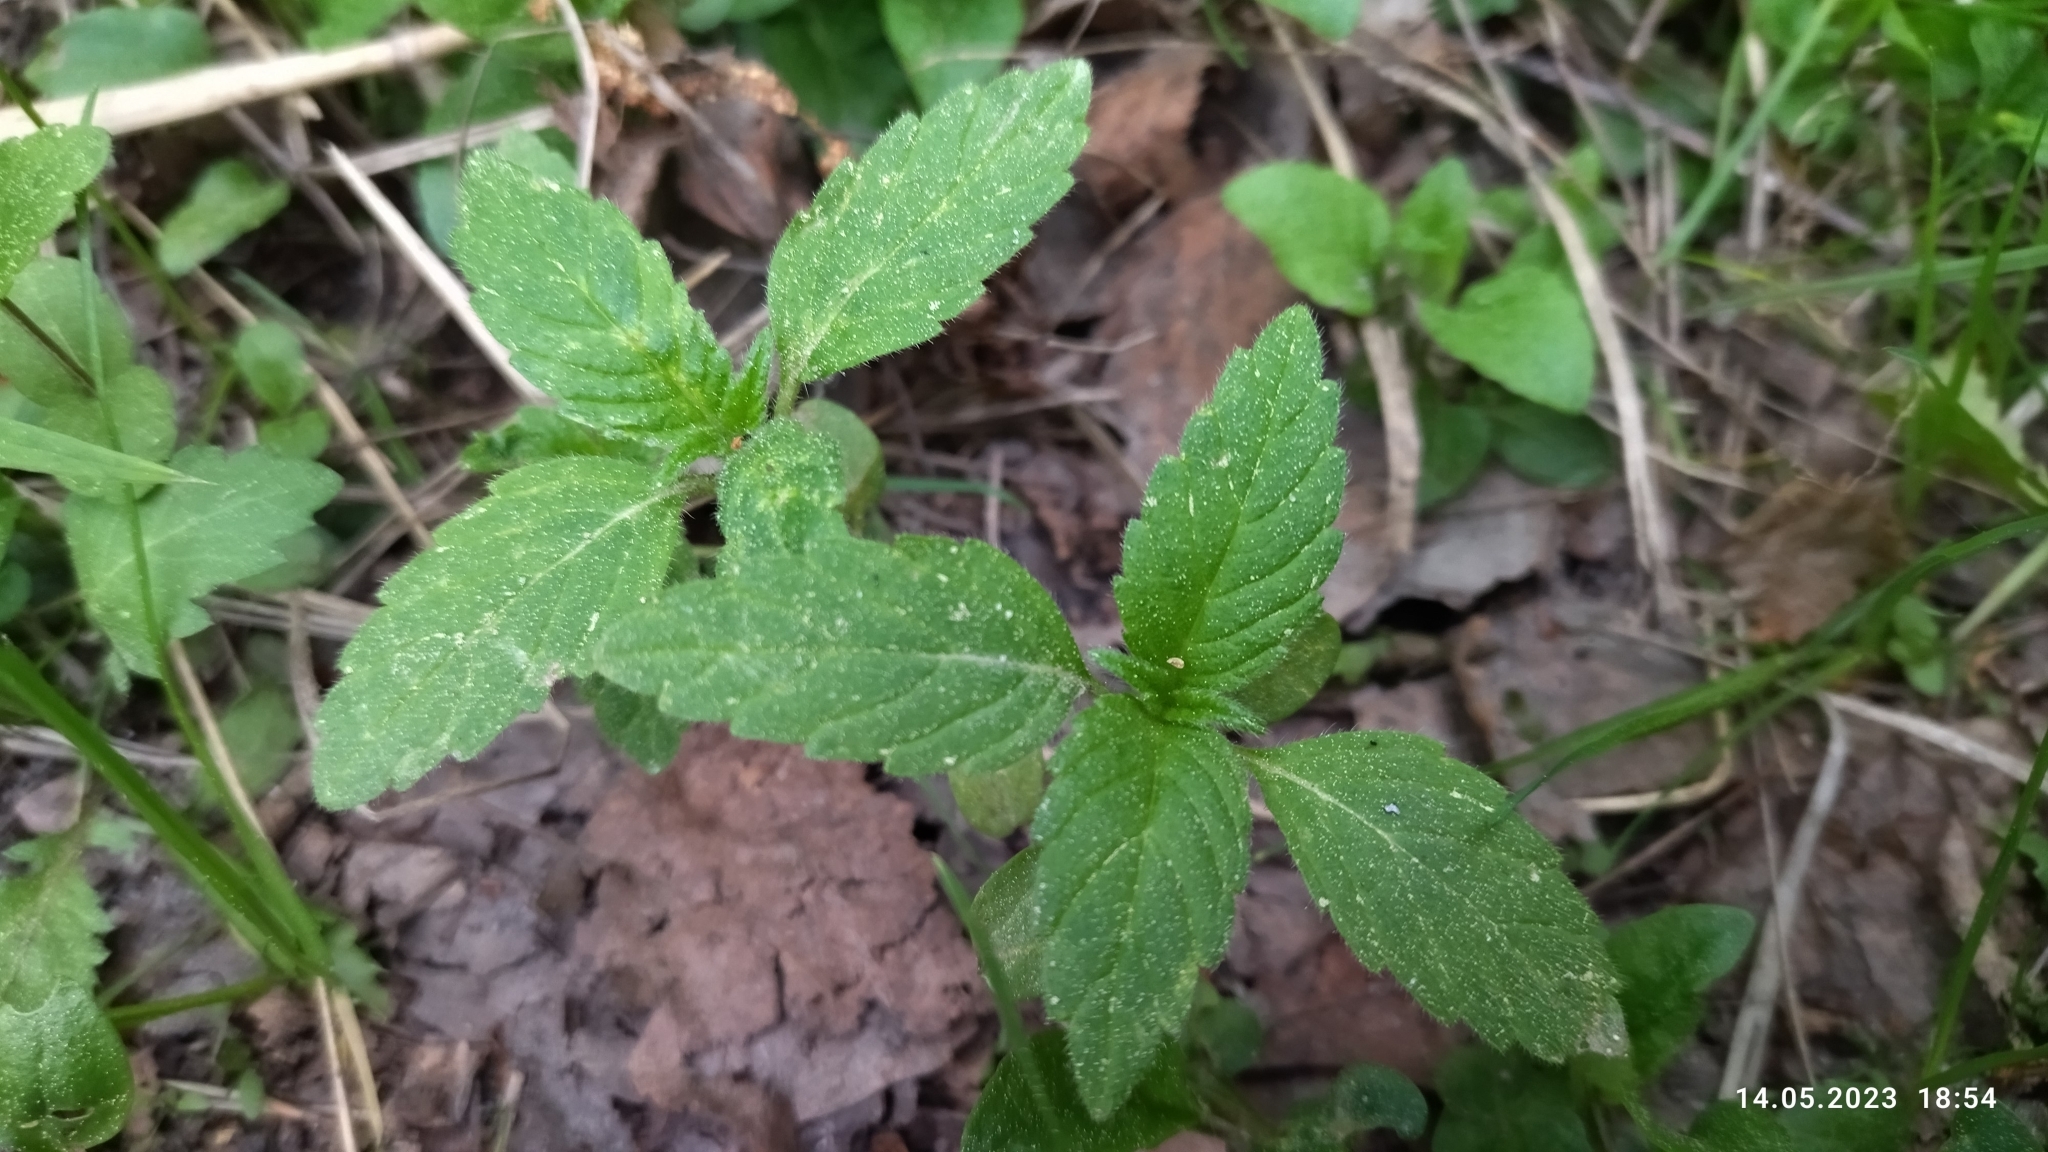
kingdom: Plantae
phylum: Tracheophyta
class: Magnoliopsida
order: Lamiales
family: Lamiaceae
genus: Galeopsis
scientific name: Galeopsis bifida
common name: Bifid hemp-nettle
